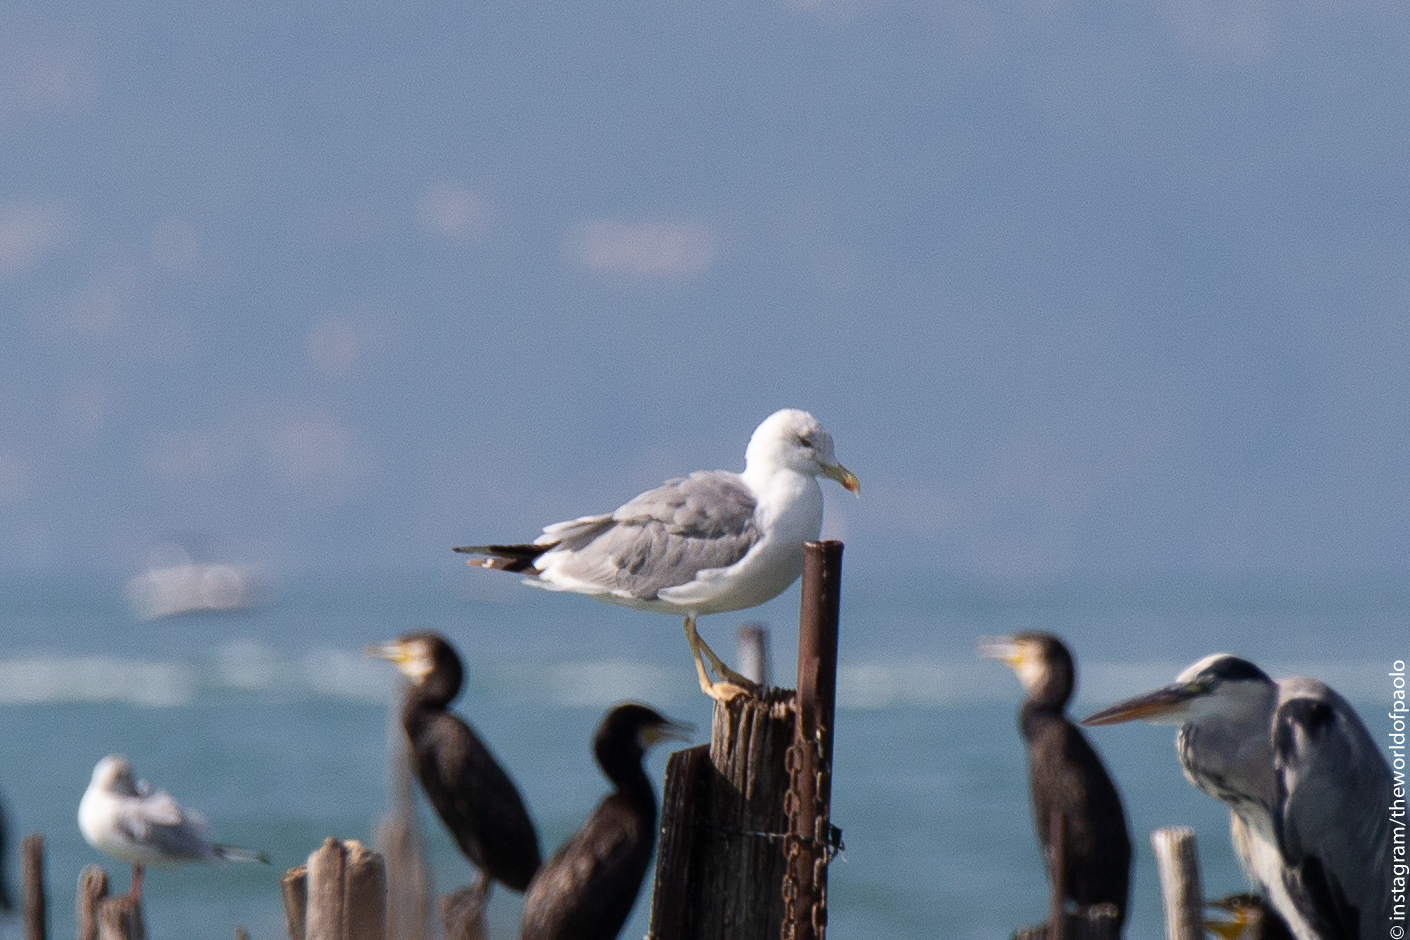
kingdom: Animalia
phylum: Chordata
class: Aves
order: Charadriiformes
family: Laridae
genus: Larus
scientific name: Larus michahellis
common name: Yellow-legged gull
